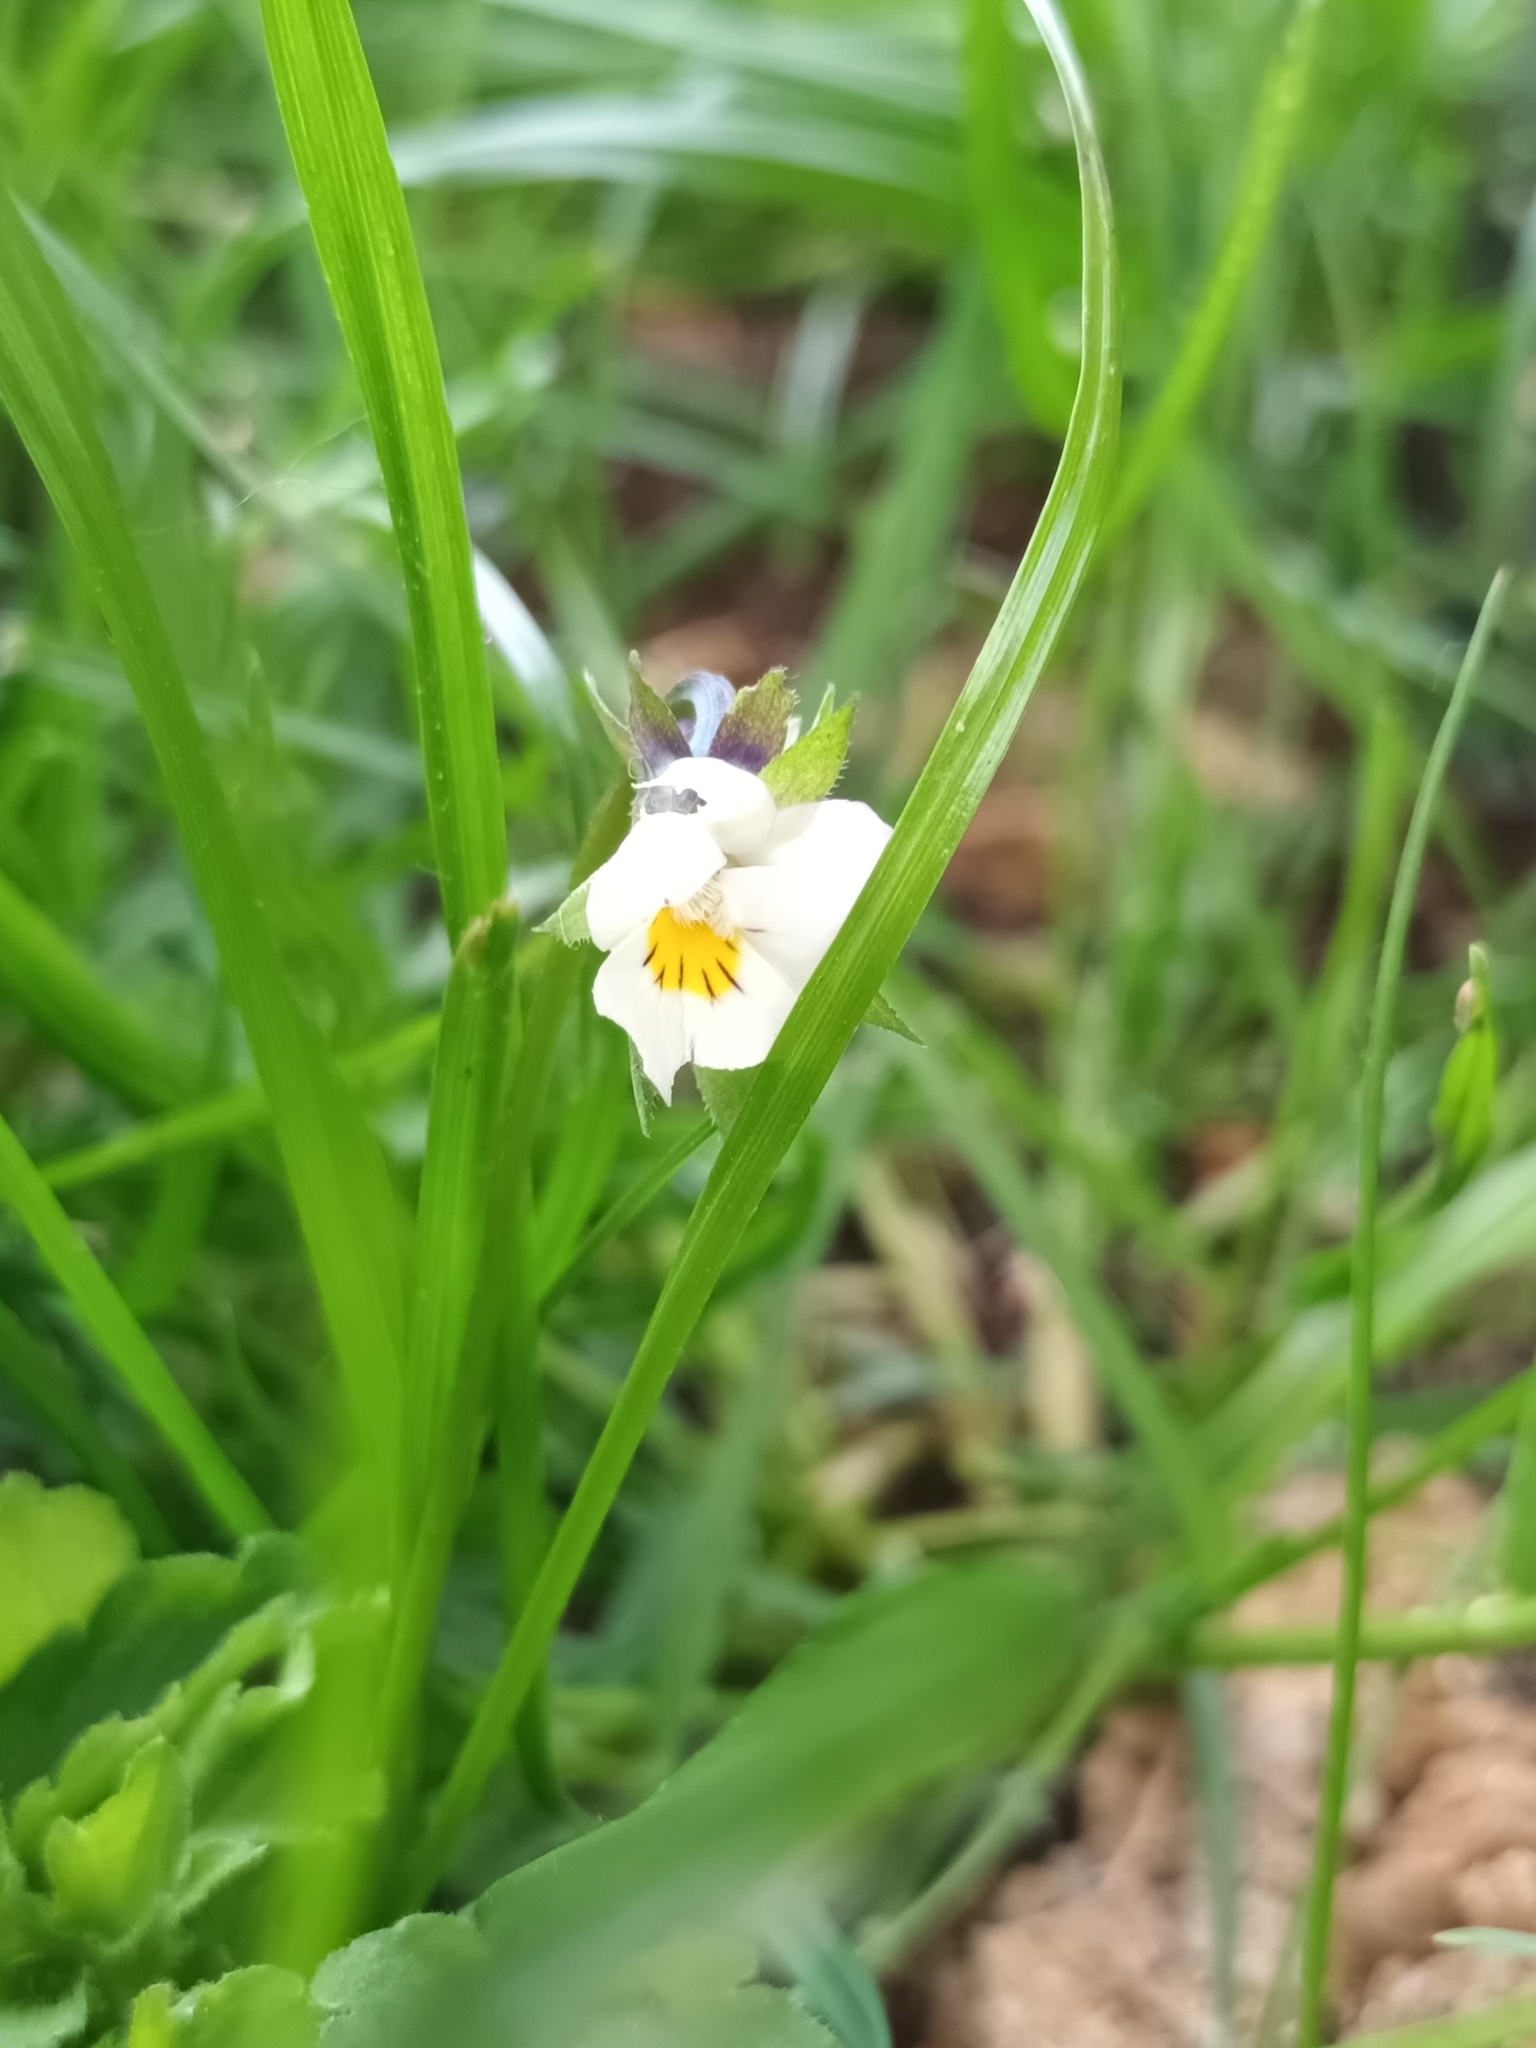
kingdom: Plantae
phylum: Tracheophyta
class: Magnoliopsida
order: Malpighiales
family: Violaceae
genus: Viola
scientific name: Viola arvensis
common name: Field pansy
